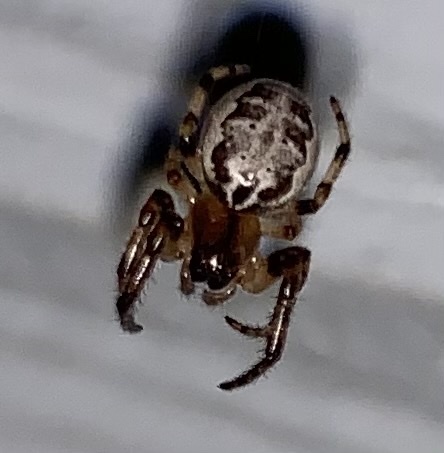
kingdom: Animalia
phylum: Arthropoda
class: Arachnida
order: Araneae
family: Araneidae
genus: Larinioides
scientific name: Larinioides cornutus
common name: Furrow orbweaver
